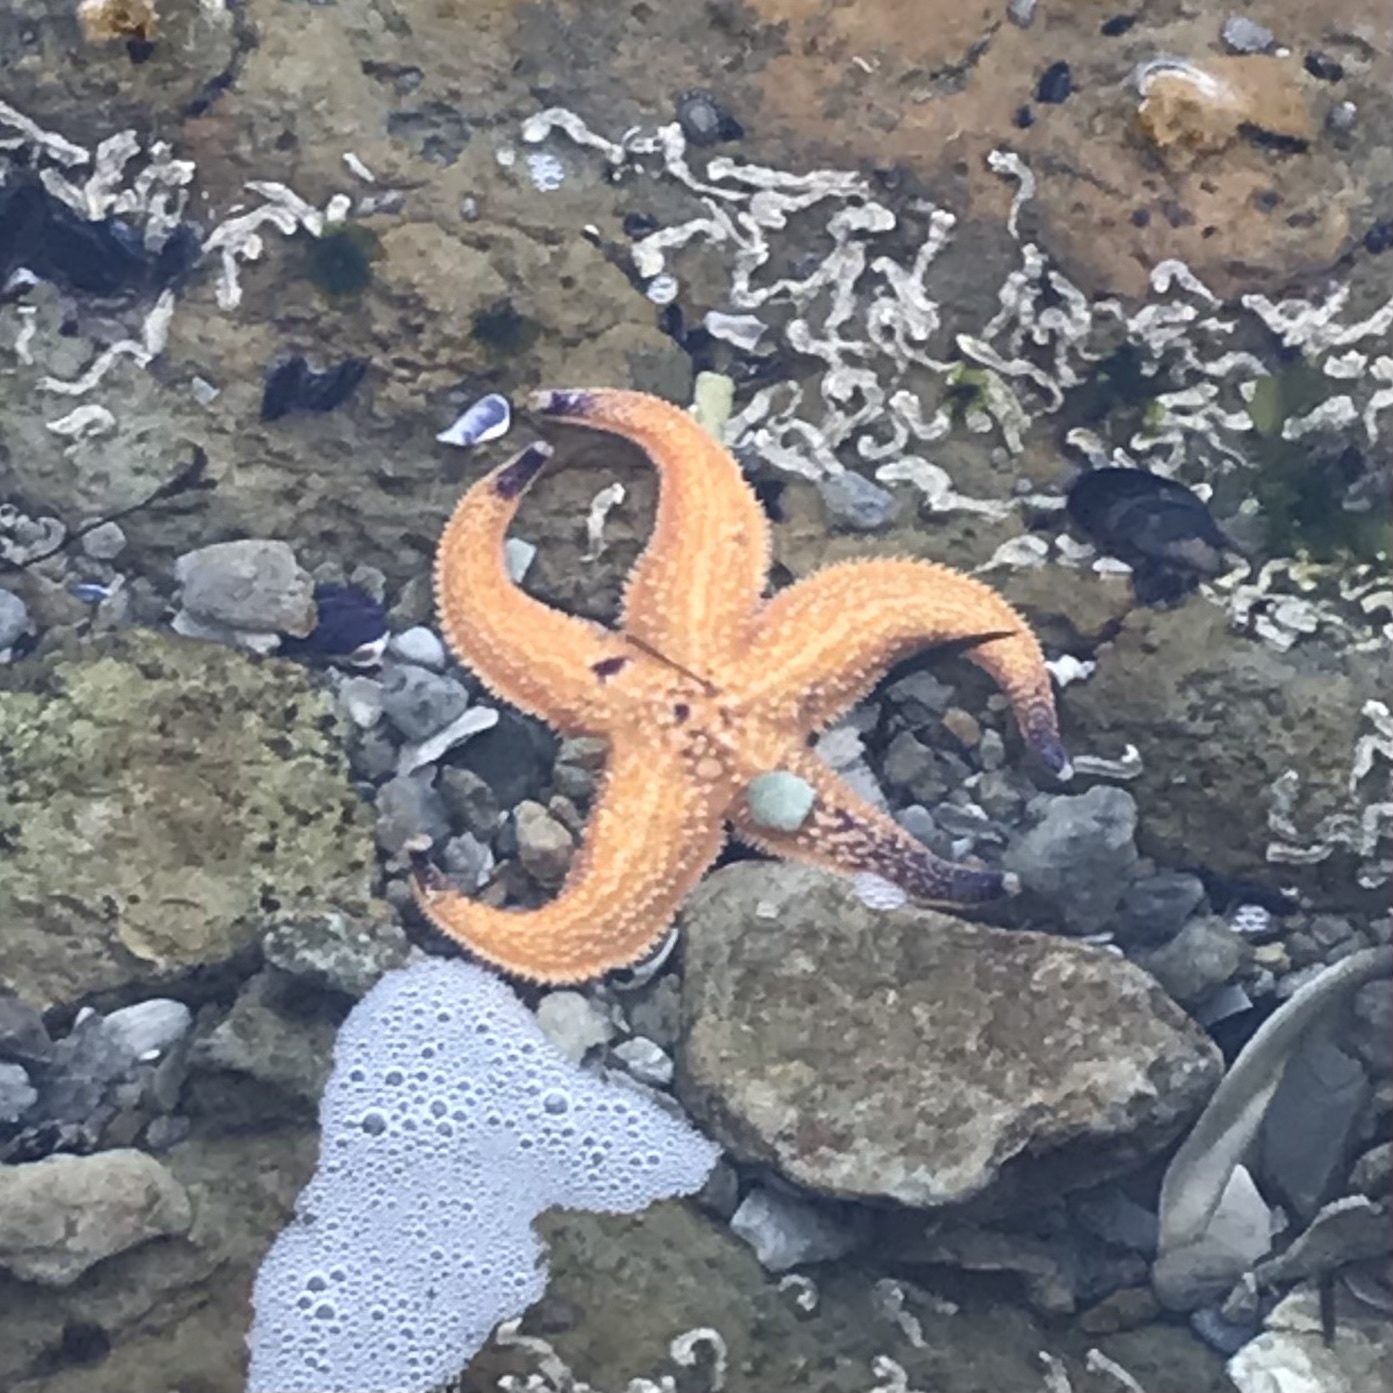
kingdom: Animalia
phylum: Echinodermata
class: Asteroidea
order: Forcipulatida
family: Asteriidae
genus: Asterias
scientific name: Asterias amurensis
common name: Flat-bottomed star
